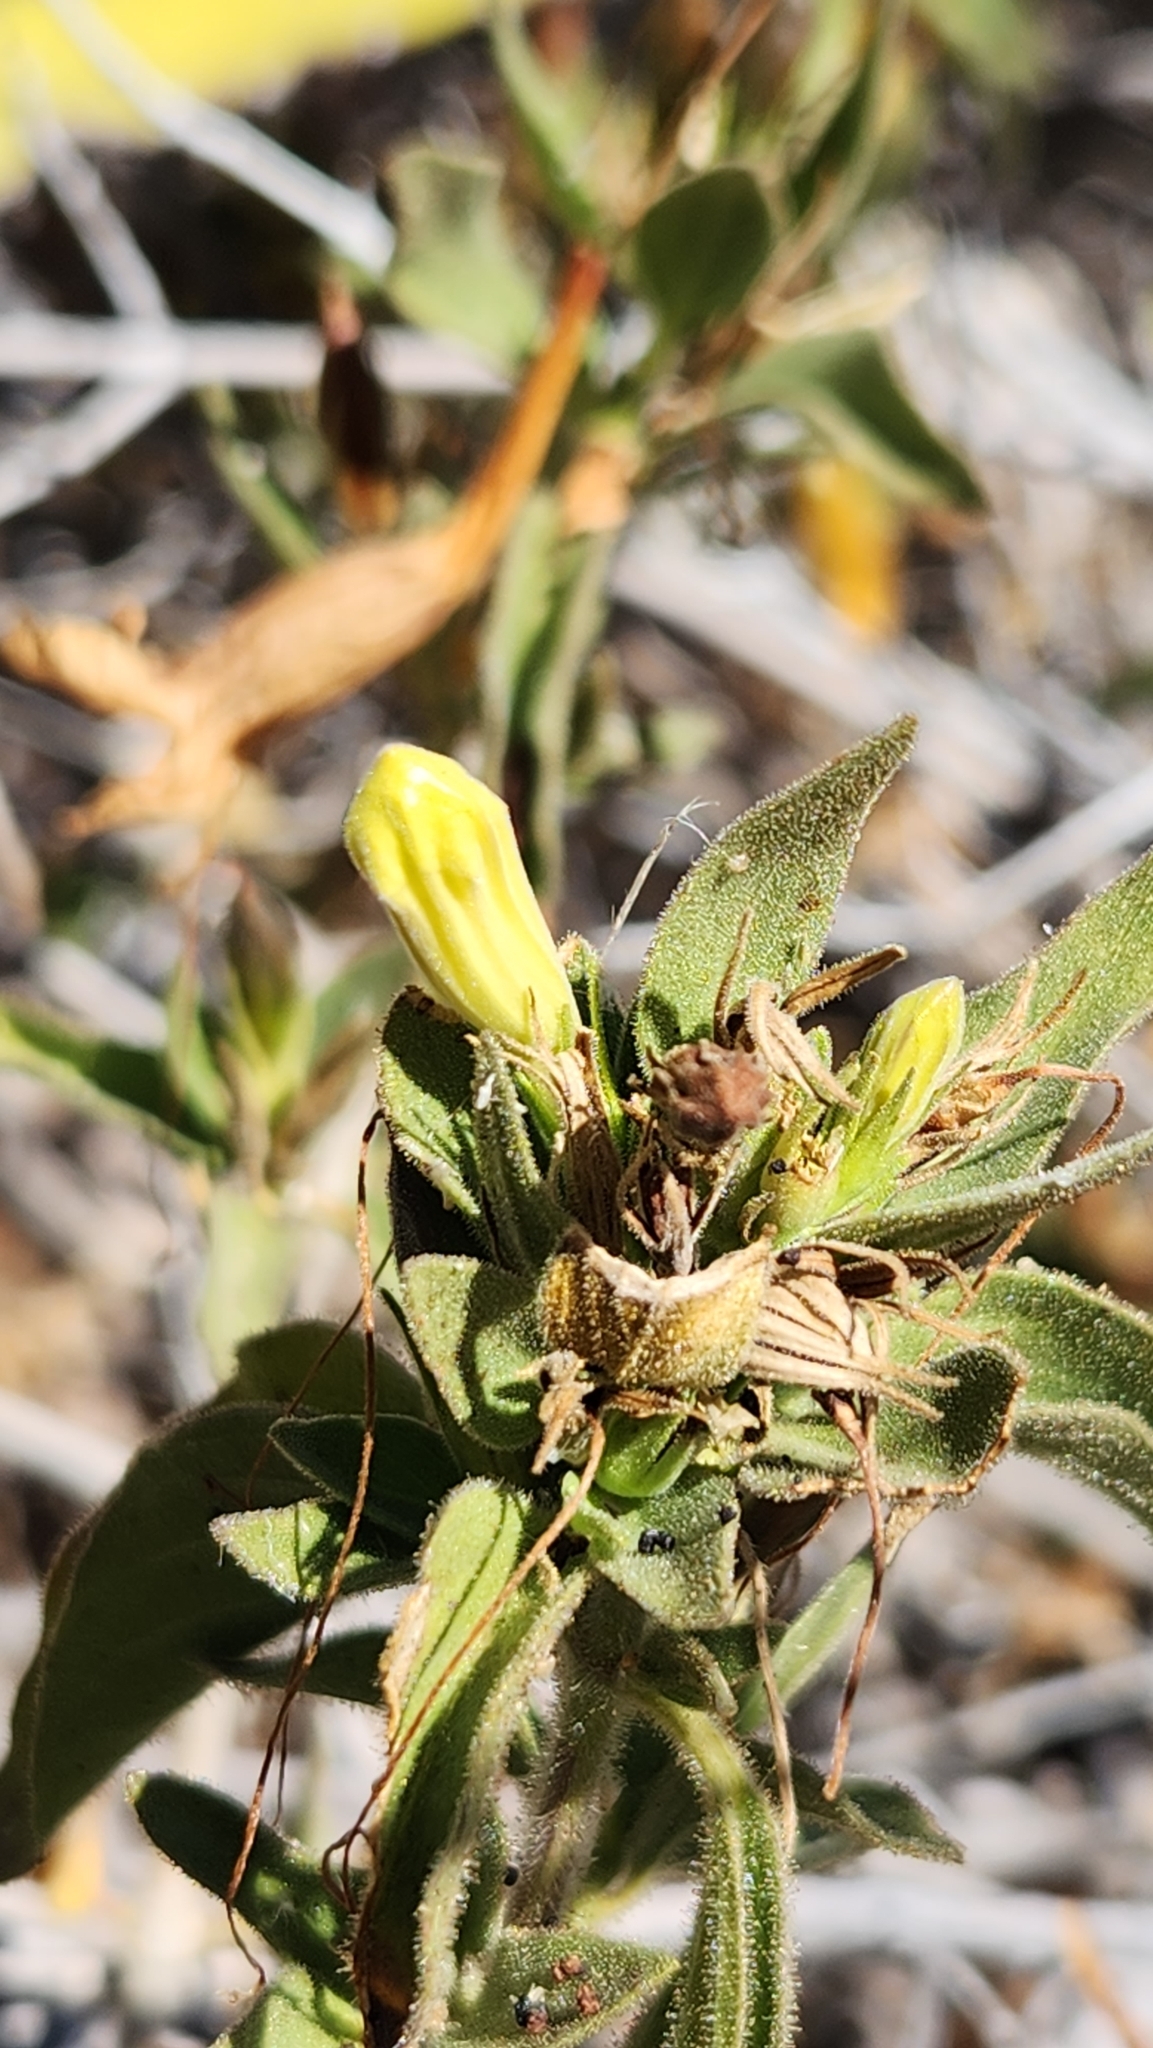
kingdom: Plantae
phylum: Tracheophyta
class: Magnoliopsida
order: Lamiales
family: Acanthaceae
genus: Ruellia
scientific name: Ruellia californica
